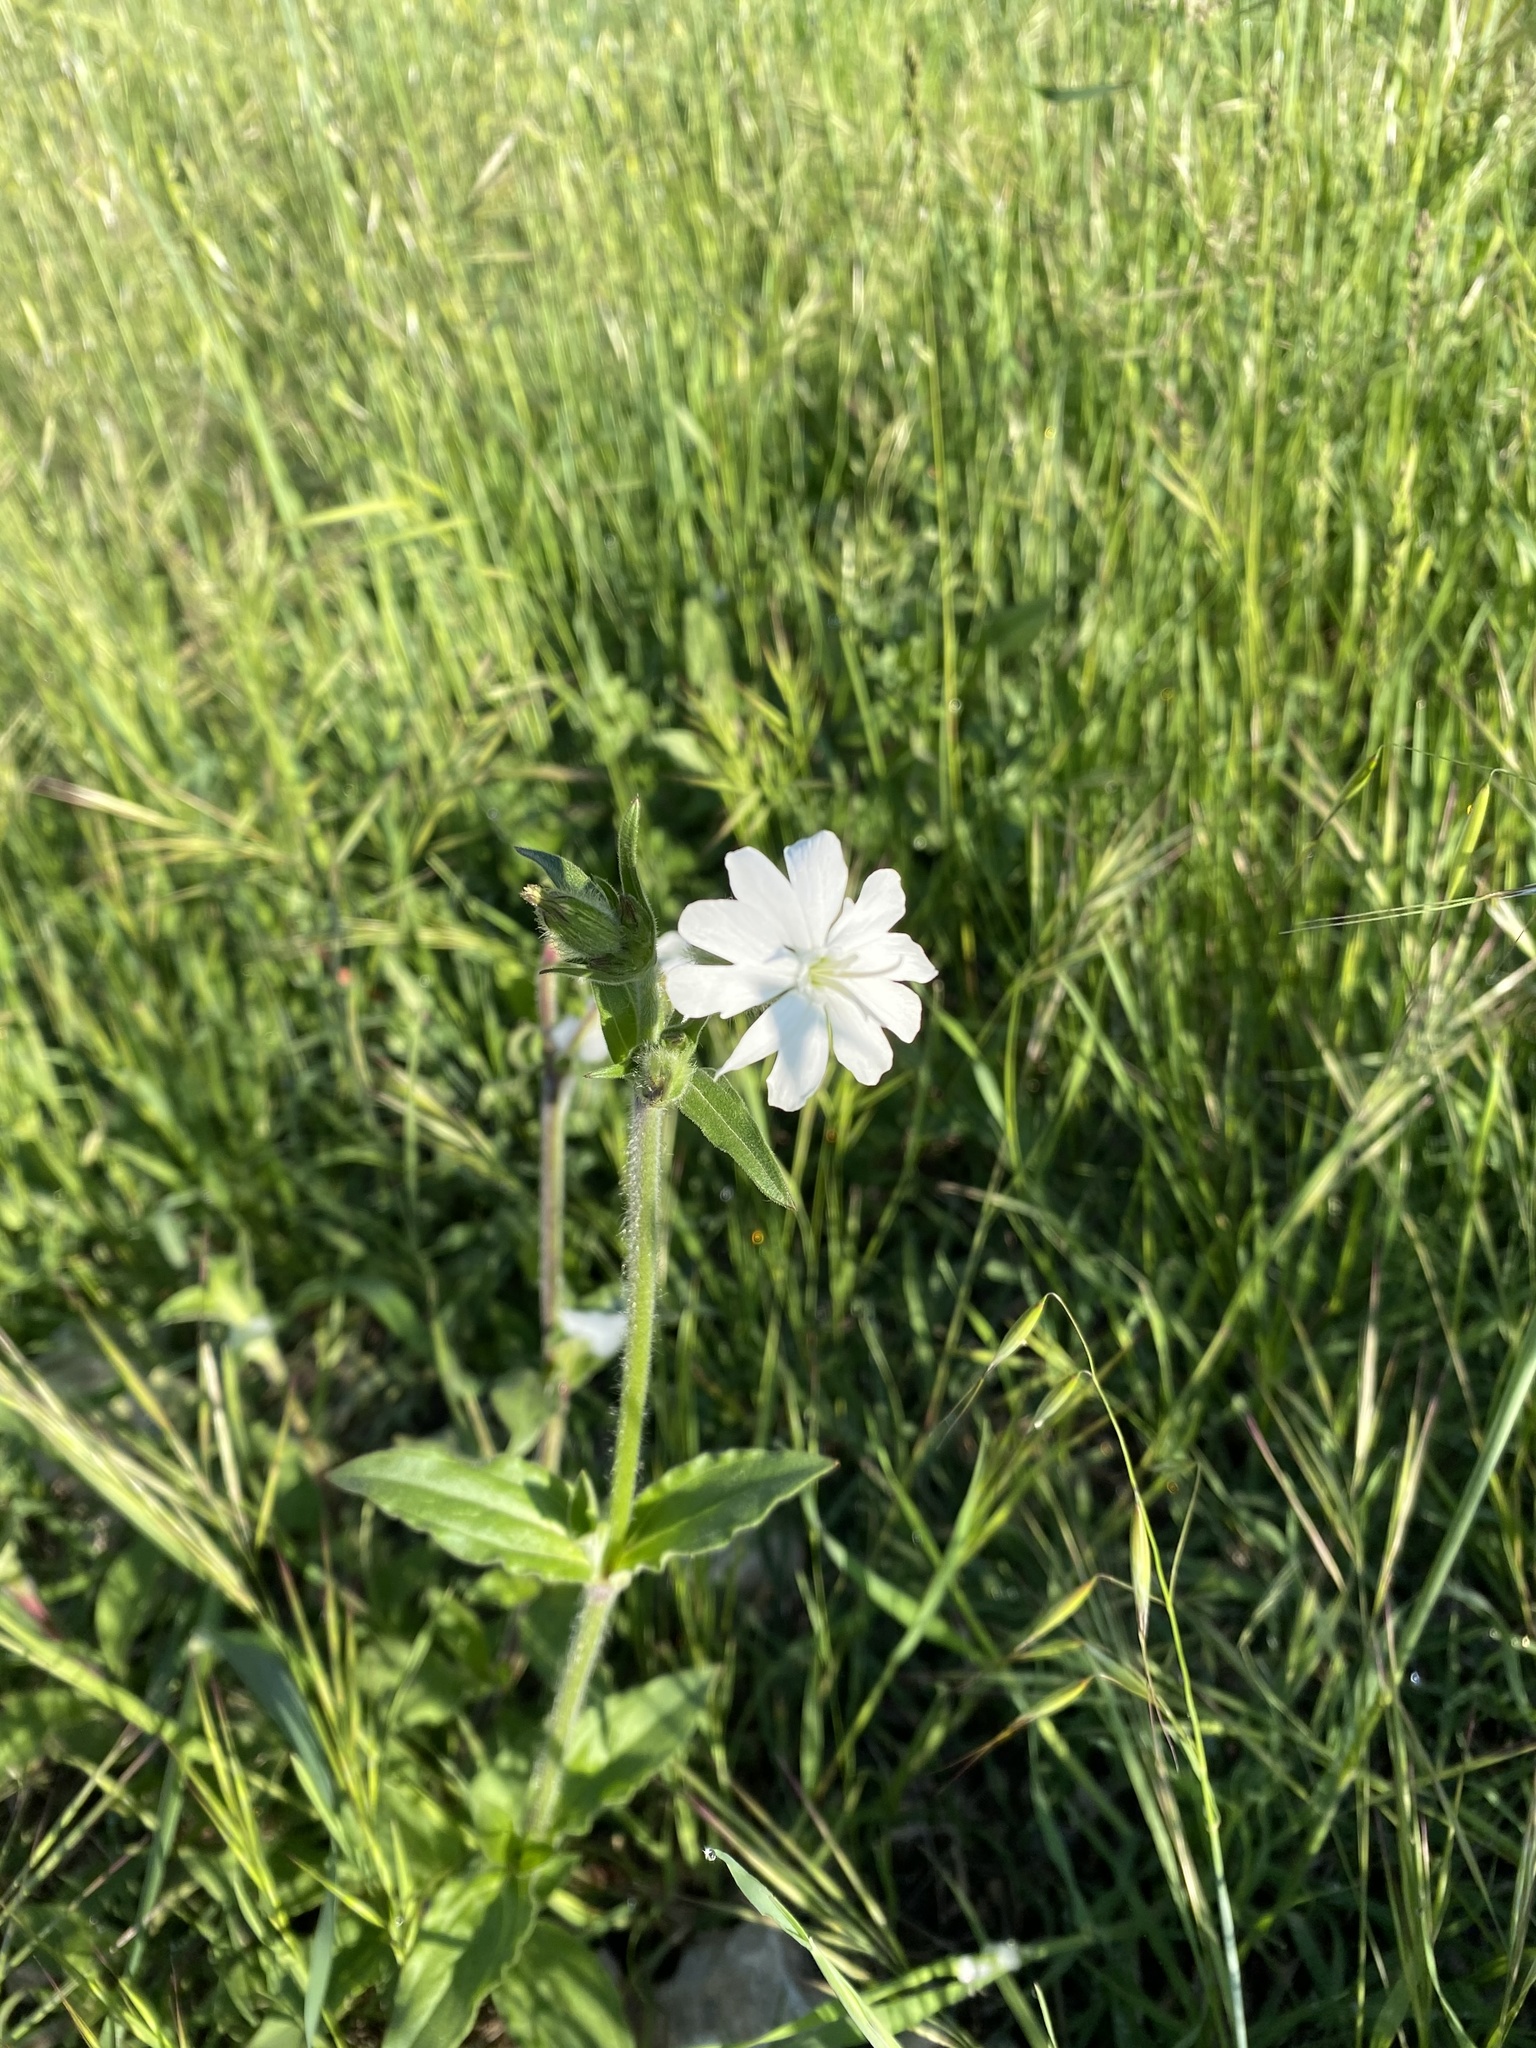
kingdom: Plantae
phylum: Tracheophyta
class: Magnoliopsida
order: Caryophyllales
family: Caryophyllaceae
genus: Silene
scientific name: Silene latifolia
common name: White campion
